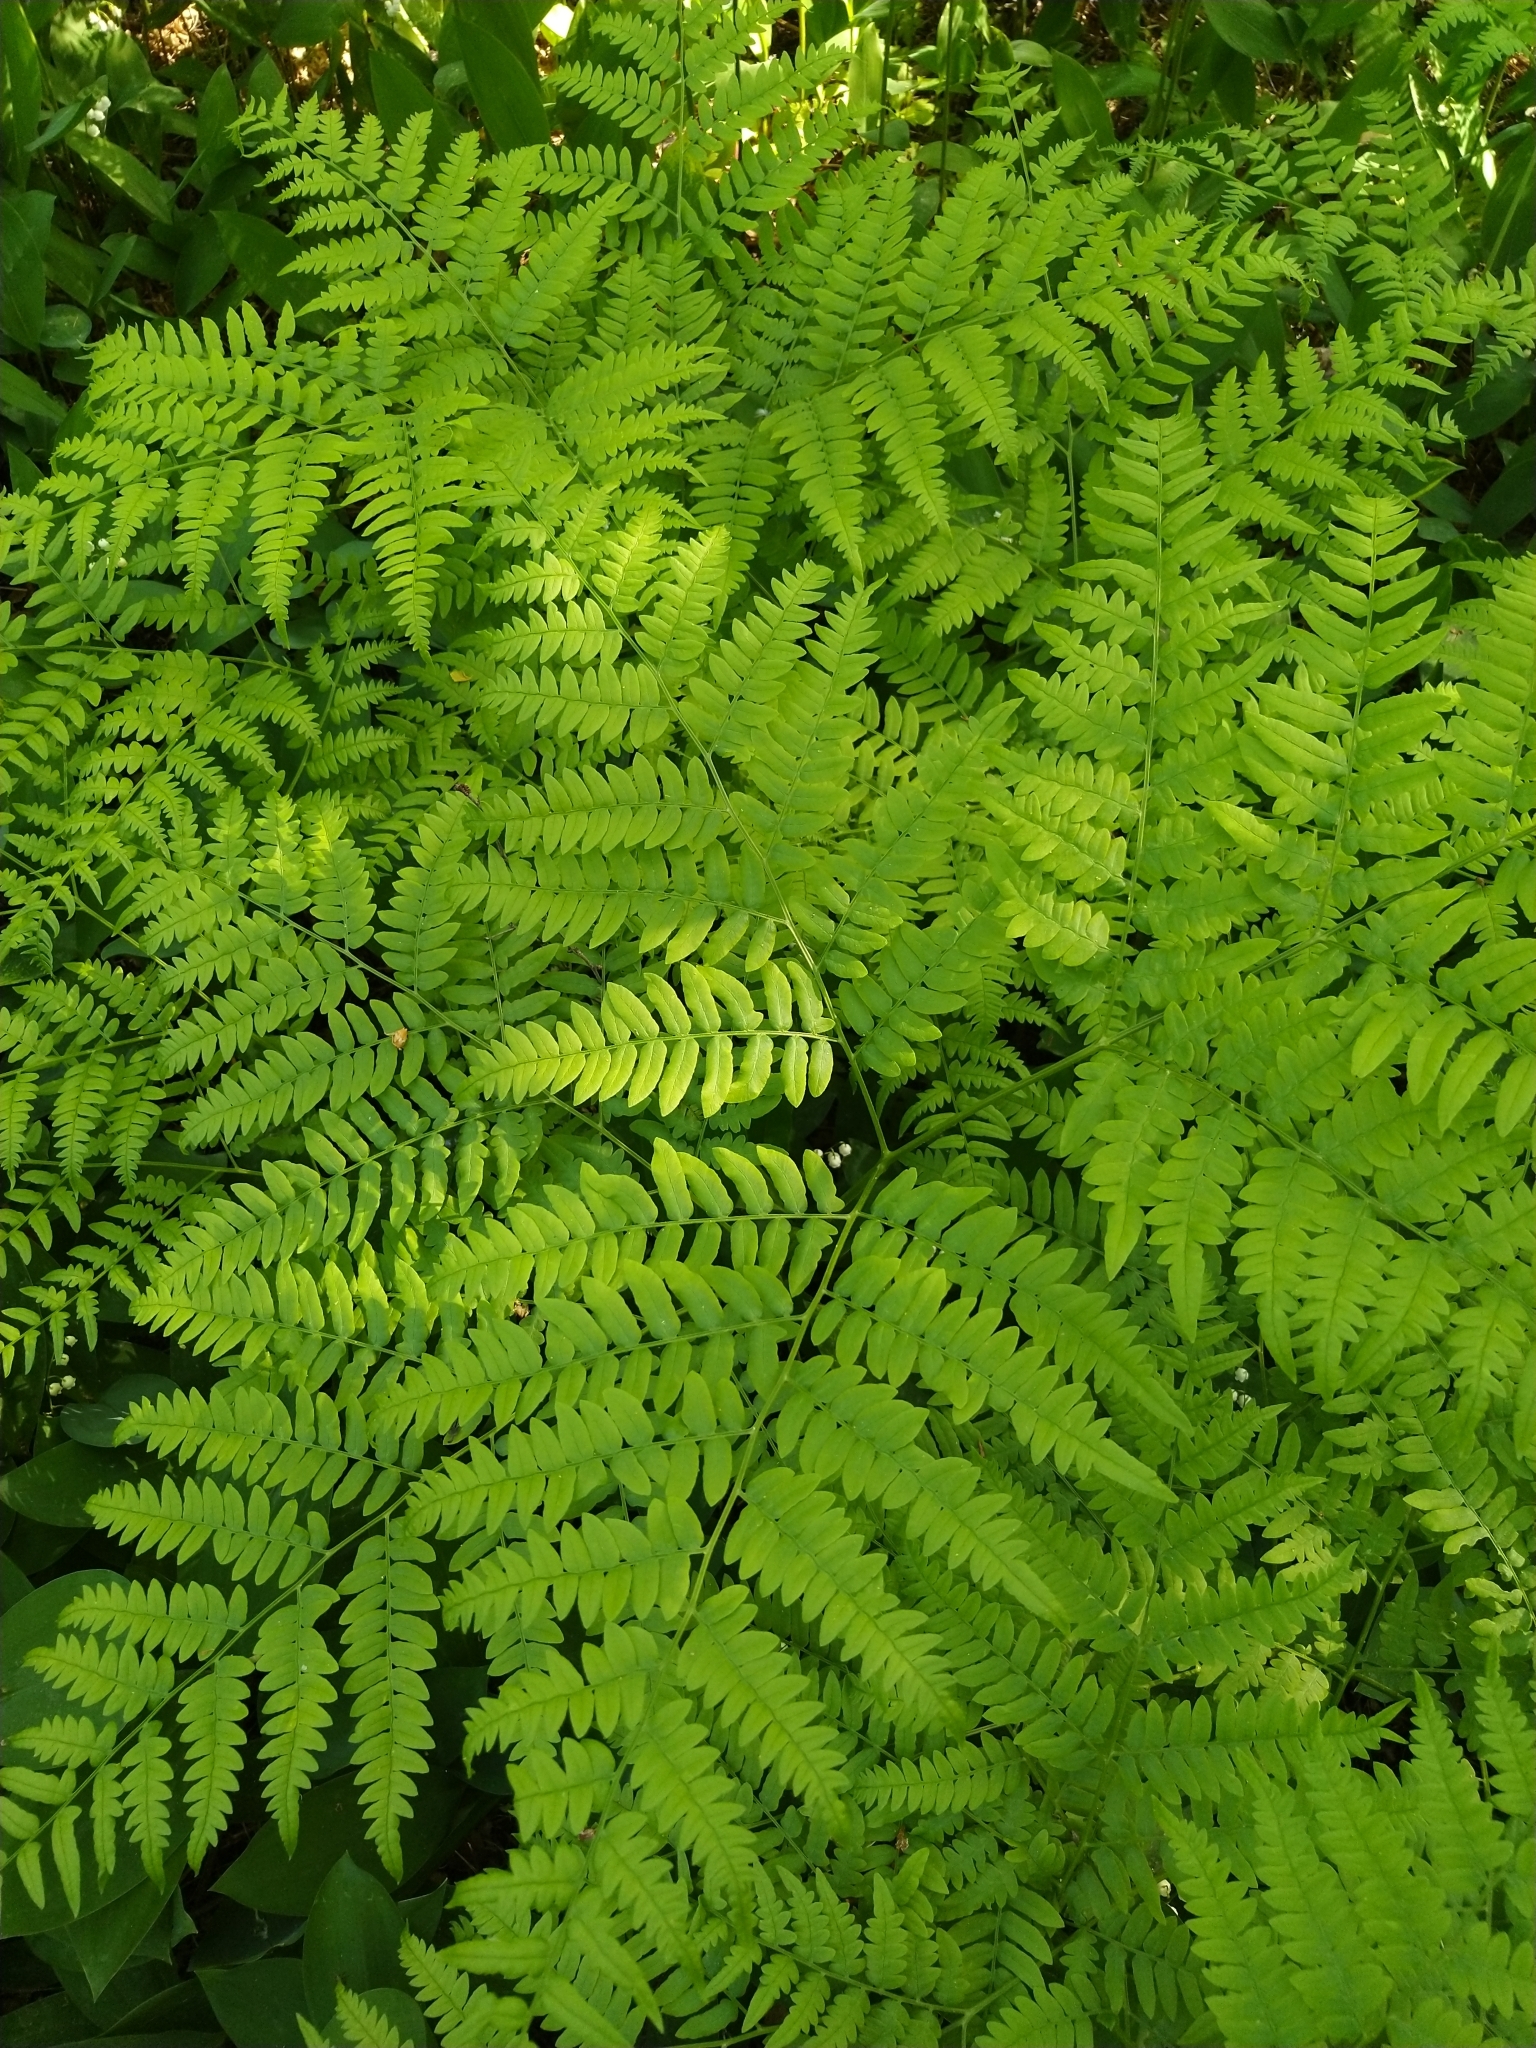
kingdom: Plantae
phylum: Tracheophyta
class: Polypodiopsida
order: Polypodiales
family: Dennstaedtiaceae
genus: Pteridium
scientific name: Pteridium aquilinum
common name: Bracken
